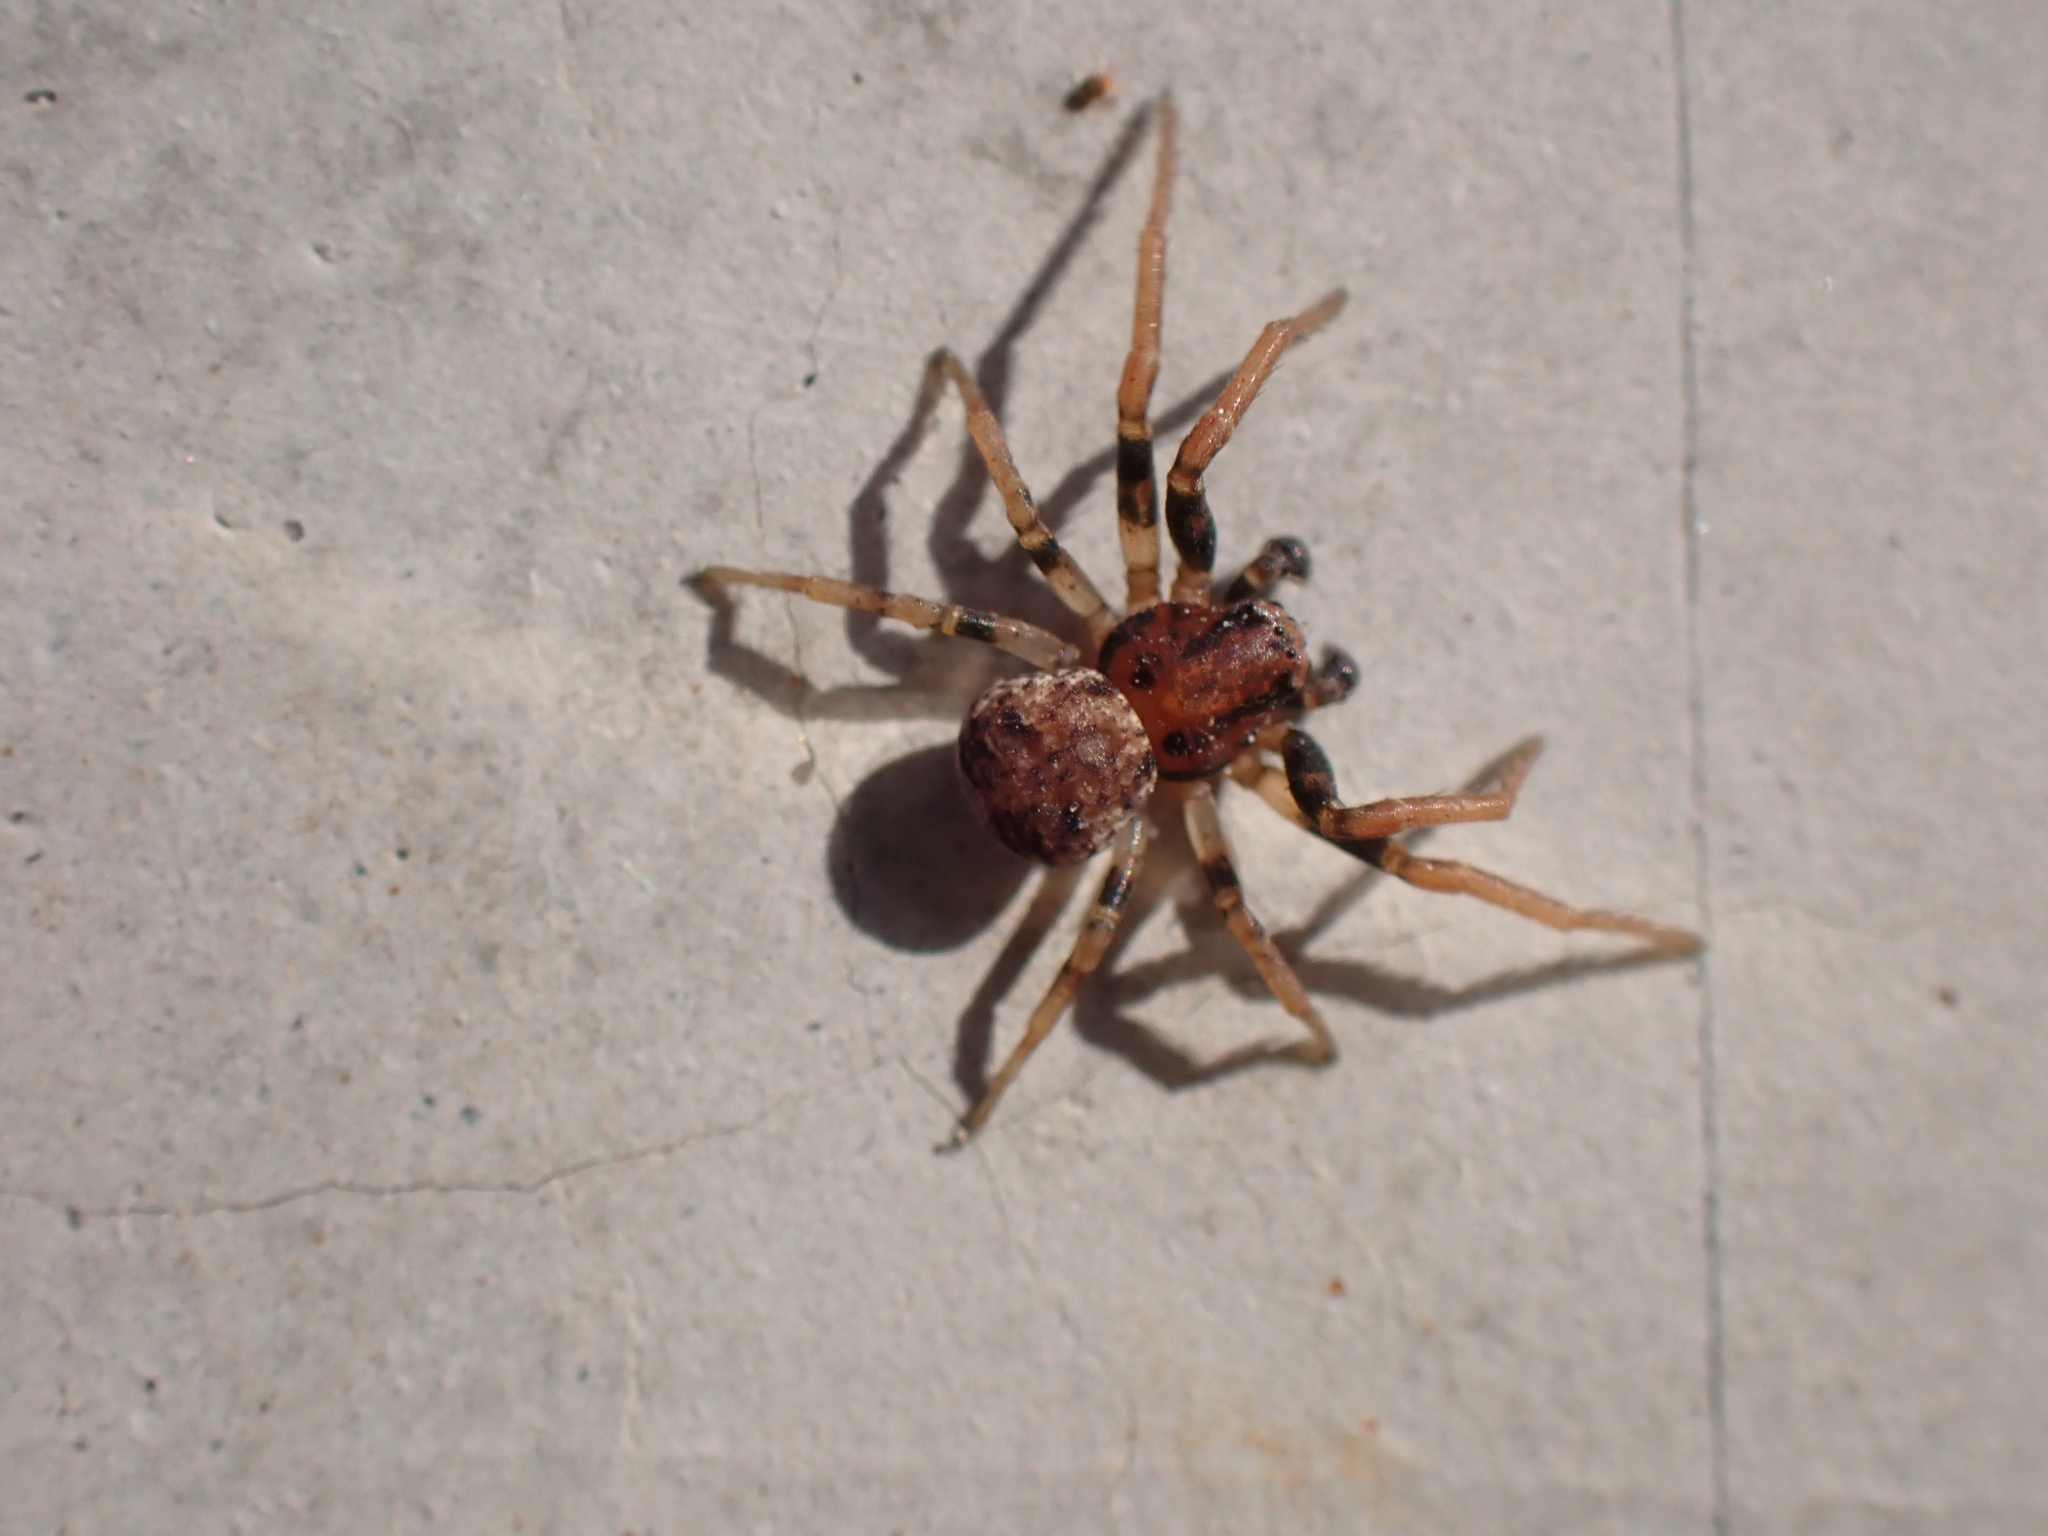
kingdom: Animalia
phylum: Arthropoda
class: Arachnida
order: Araneae
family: Thomisidae
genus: Ozyptila
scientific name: Ozyptila
